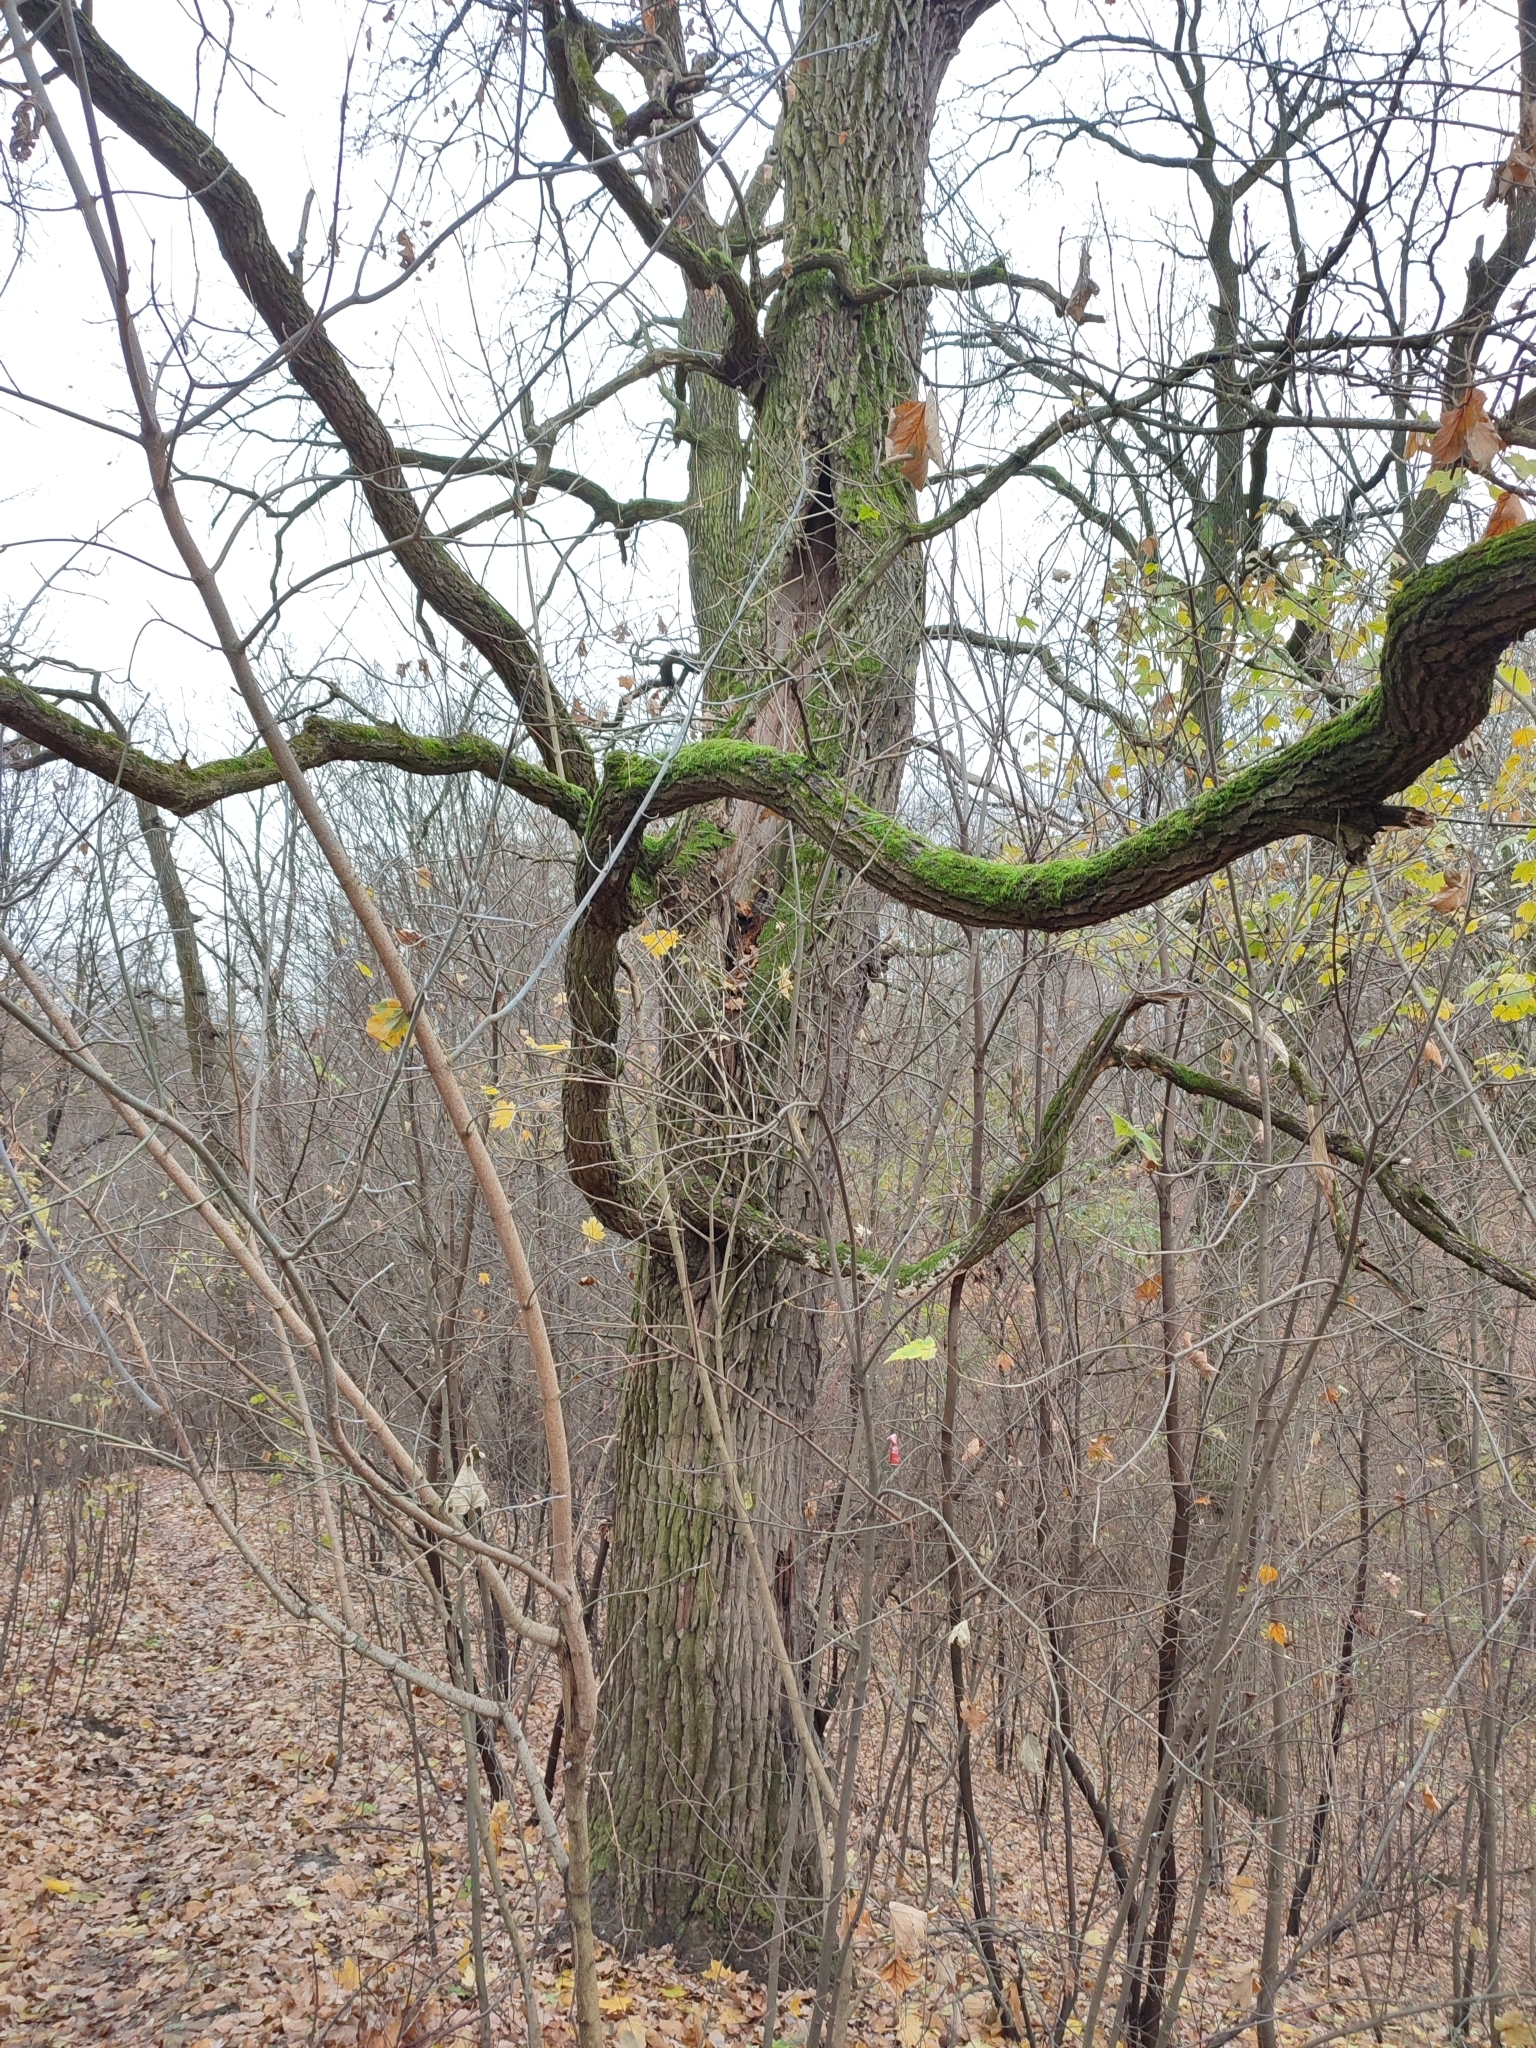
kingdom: Plantae
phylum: Tracheophyta
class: Magnoliopsida
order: Fagales
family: Fagaceae
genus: Quercus
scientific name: Quercus robur
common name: Pedunculate oak
